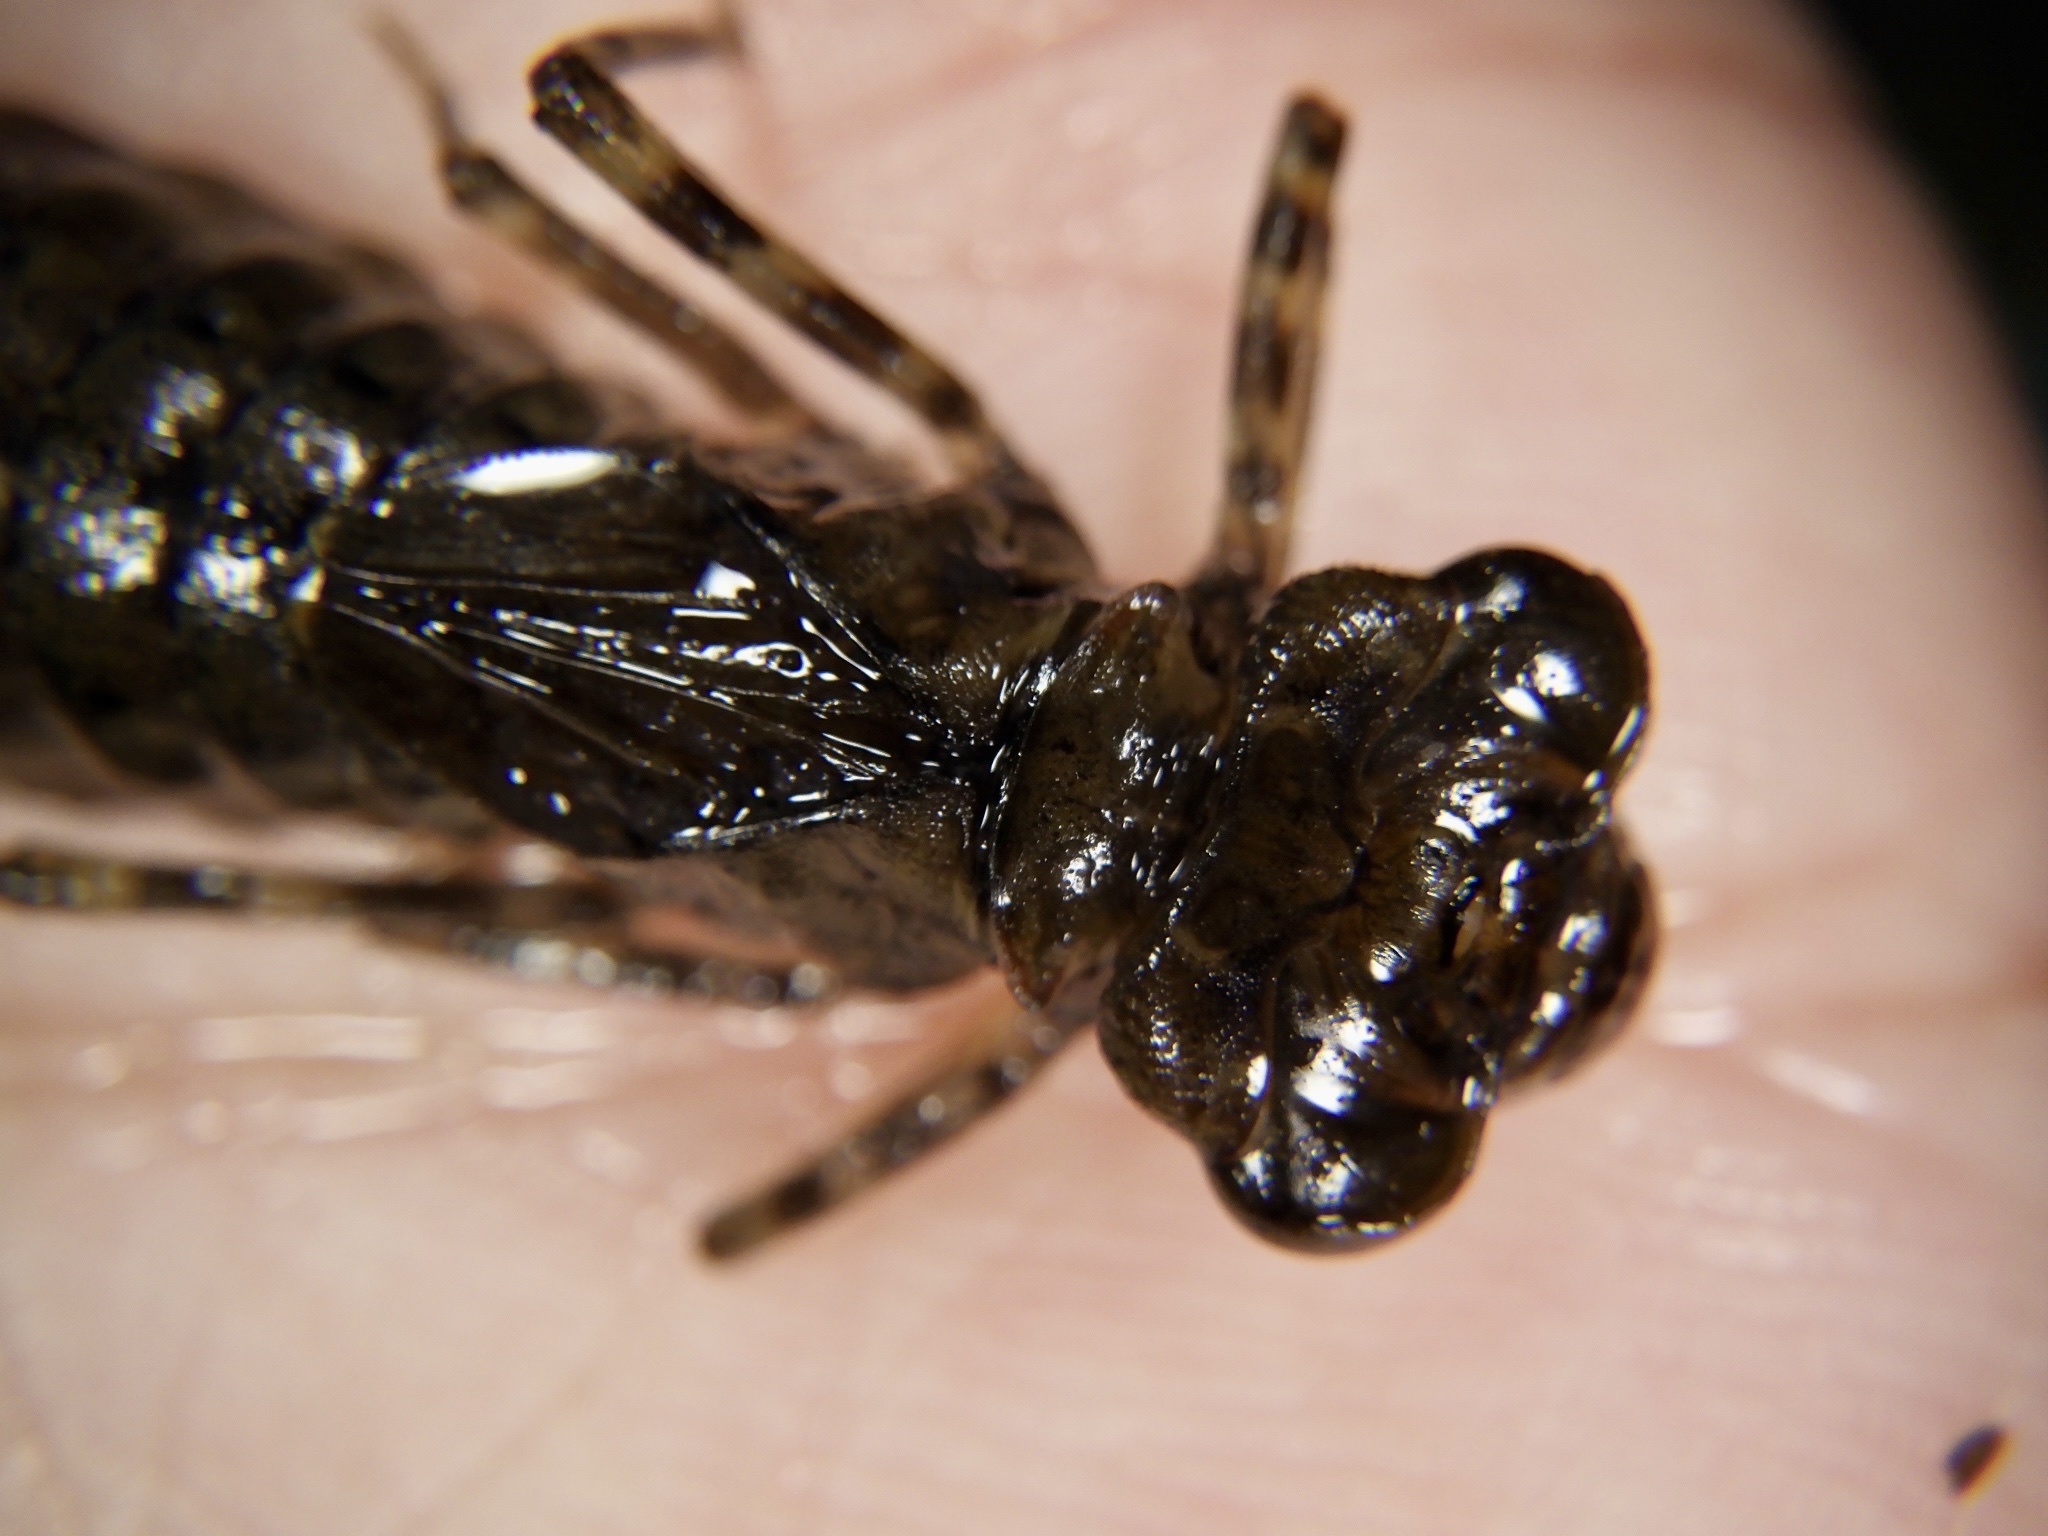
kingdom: Animalia
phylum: Arthropoda
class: Insecta
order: Odonata
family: Aeshnidae
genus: Indaeschna
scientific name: Indaeschna
